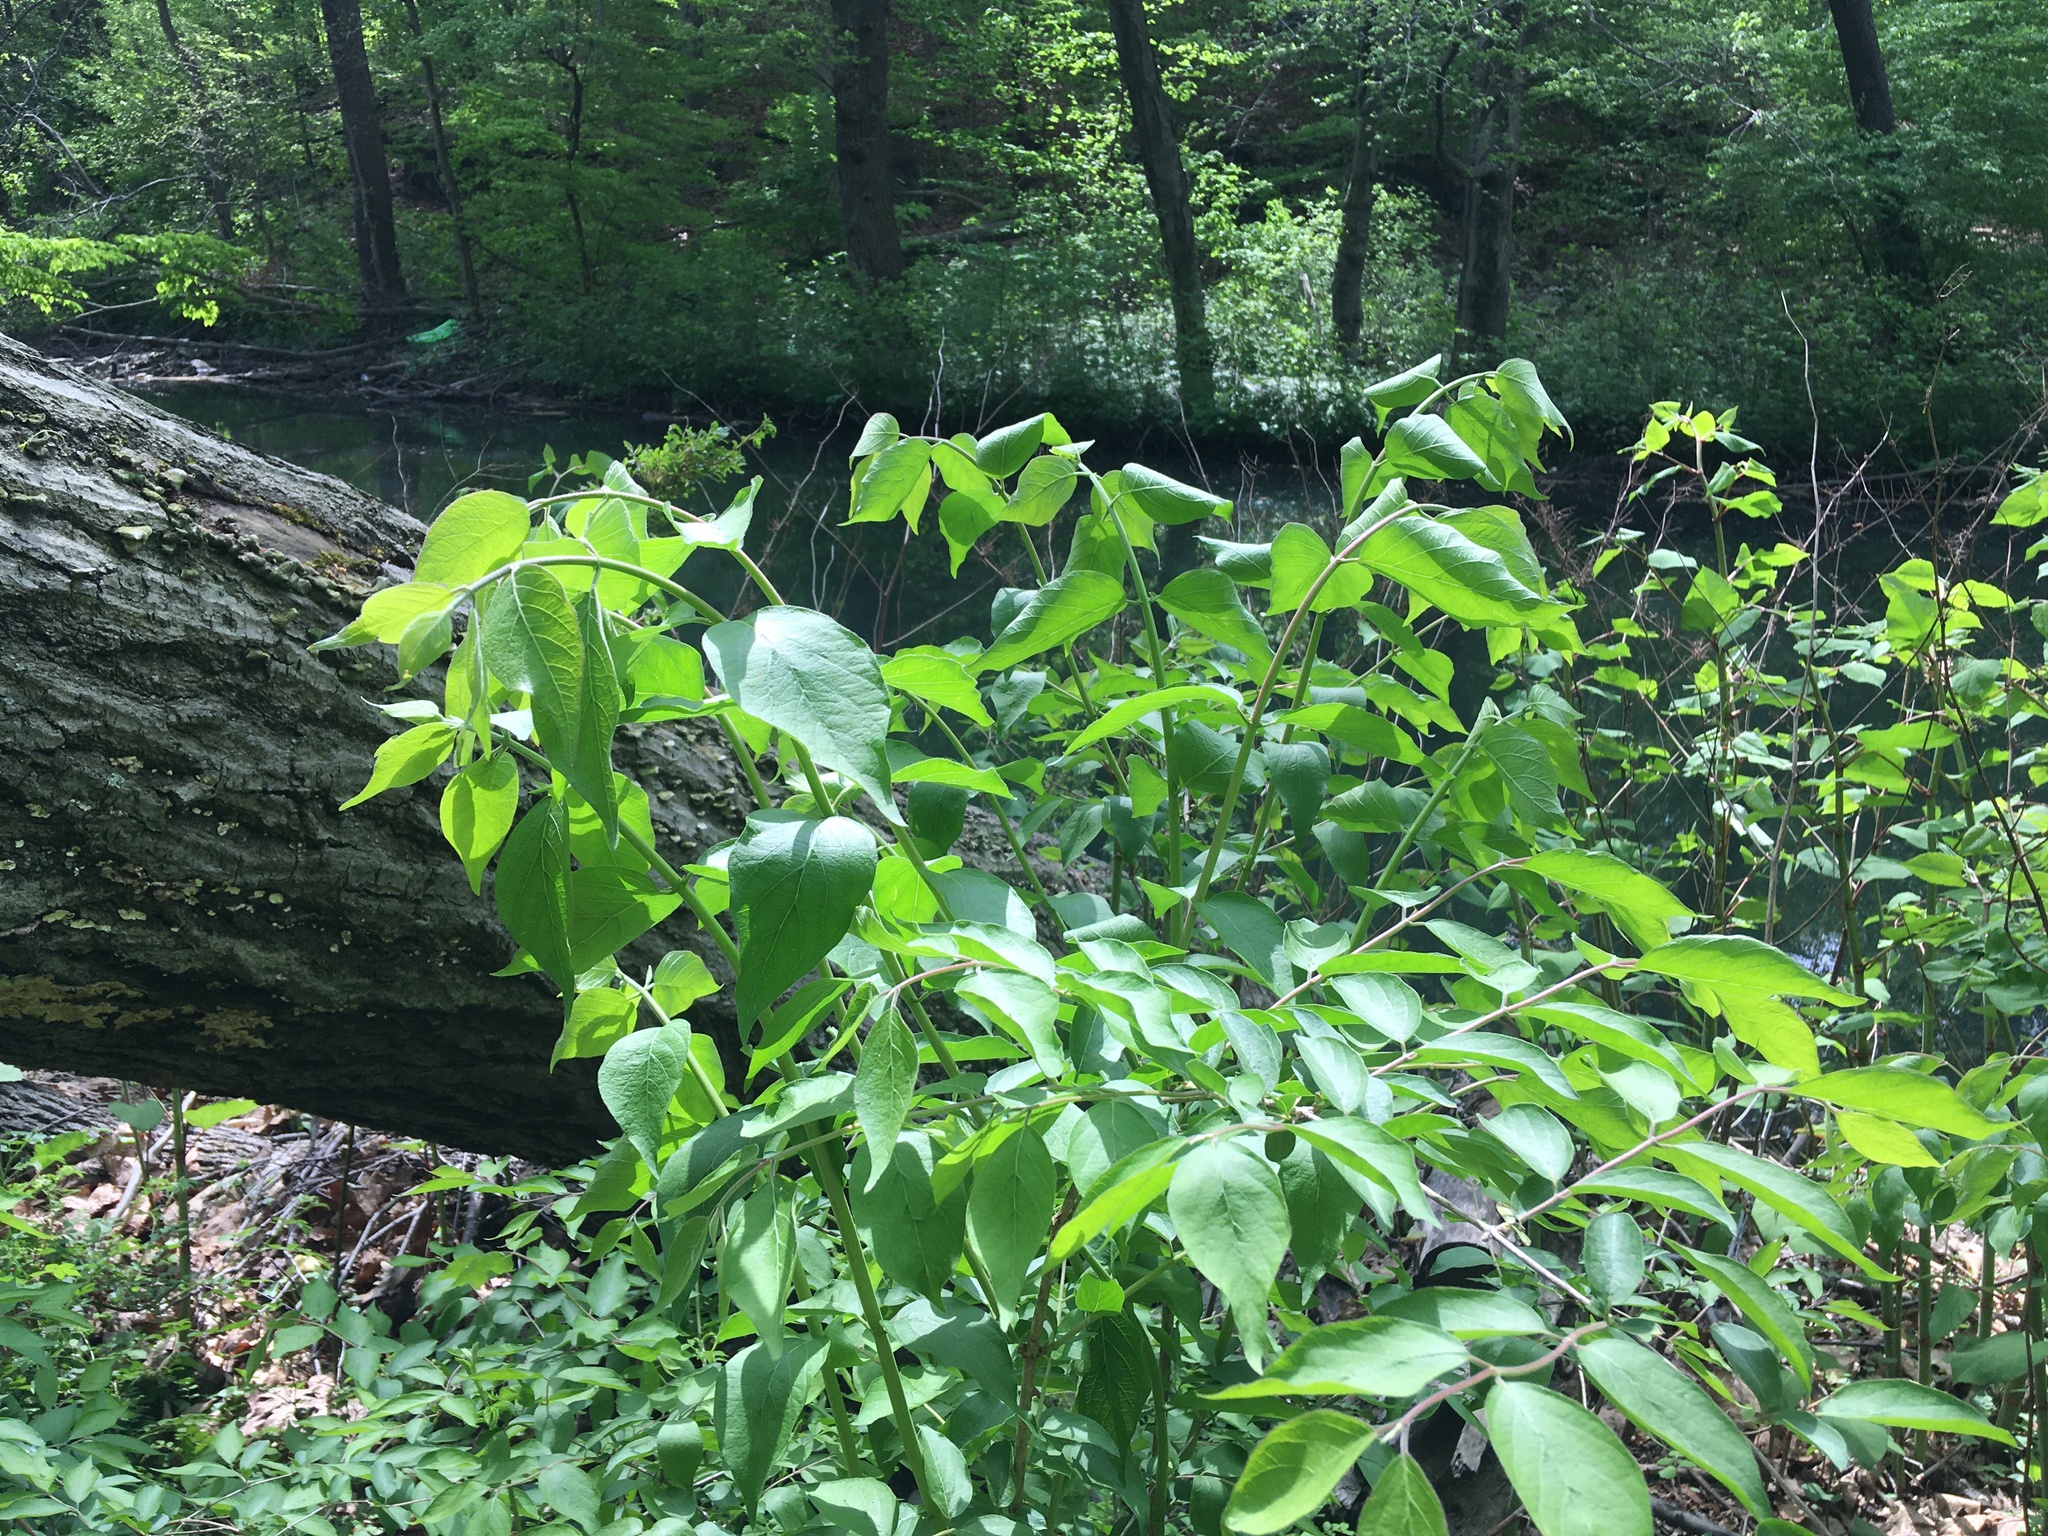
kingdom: Plantae
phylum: Tracheophyta
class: Magnoliopsida
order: Dipsacales
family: Caprifoliaceae
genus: Lonicera
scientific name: Lonicera maackii
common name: Amur honeysuckle
